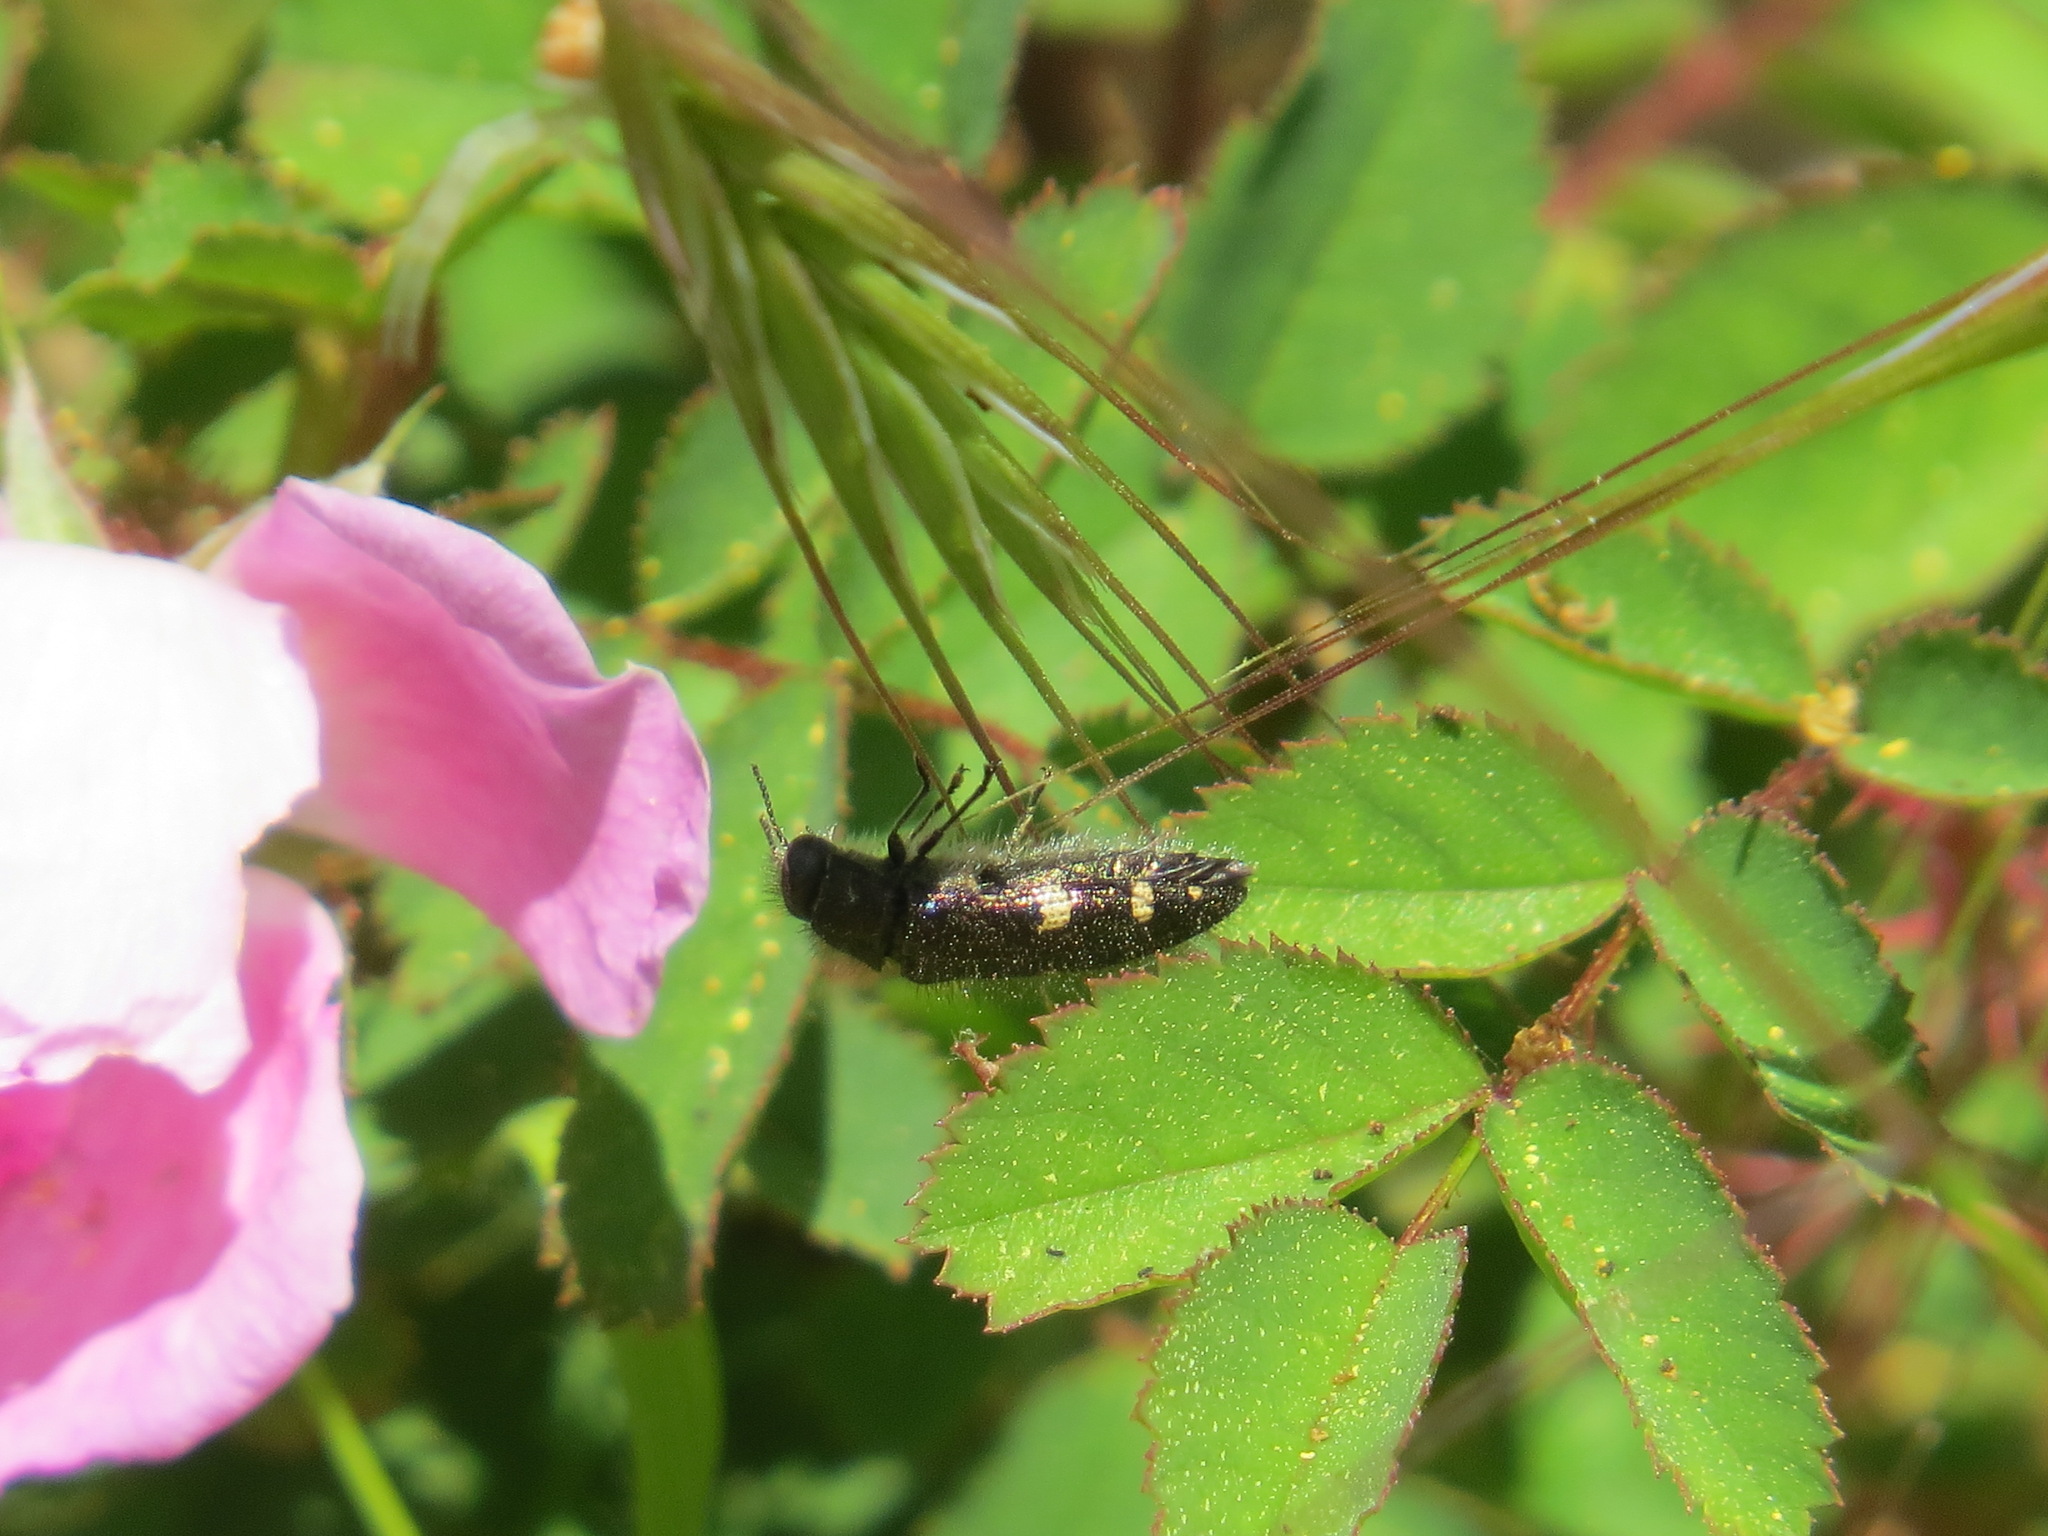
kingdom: Animalia
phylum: Arthropoda
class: Insecta
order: Coleoptera
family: Buprestidae
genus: Acmaeodera
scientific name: Acmaeodera prorsa
